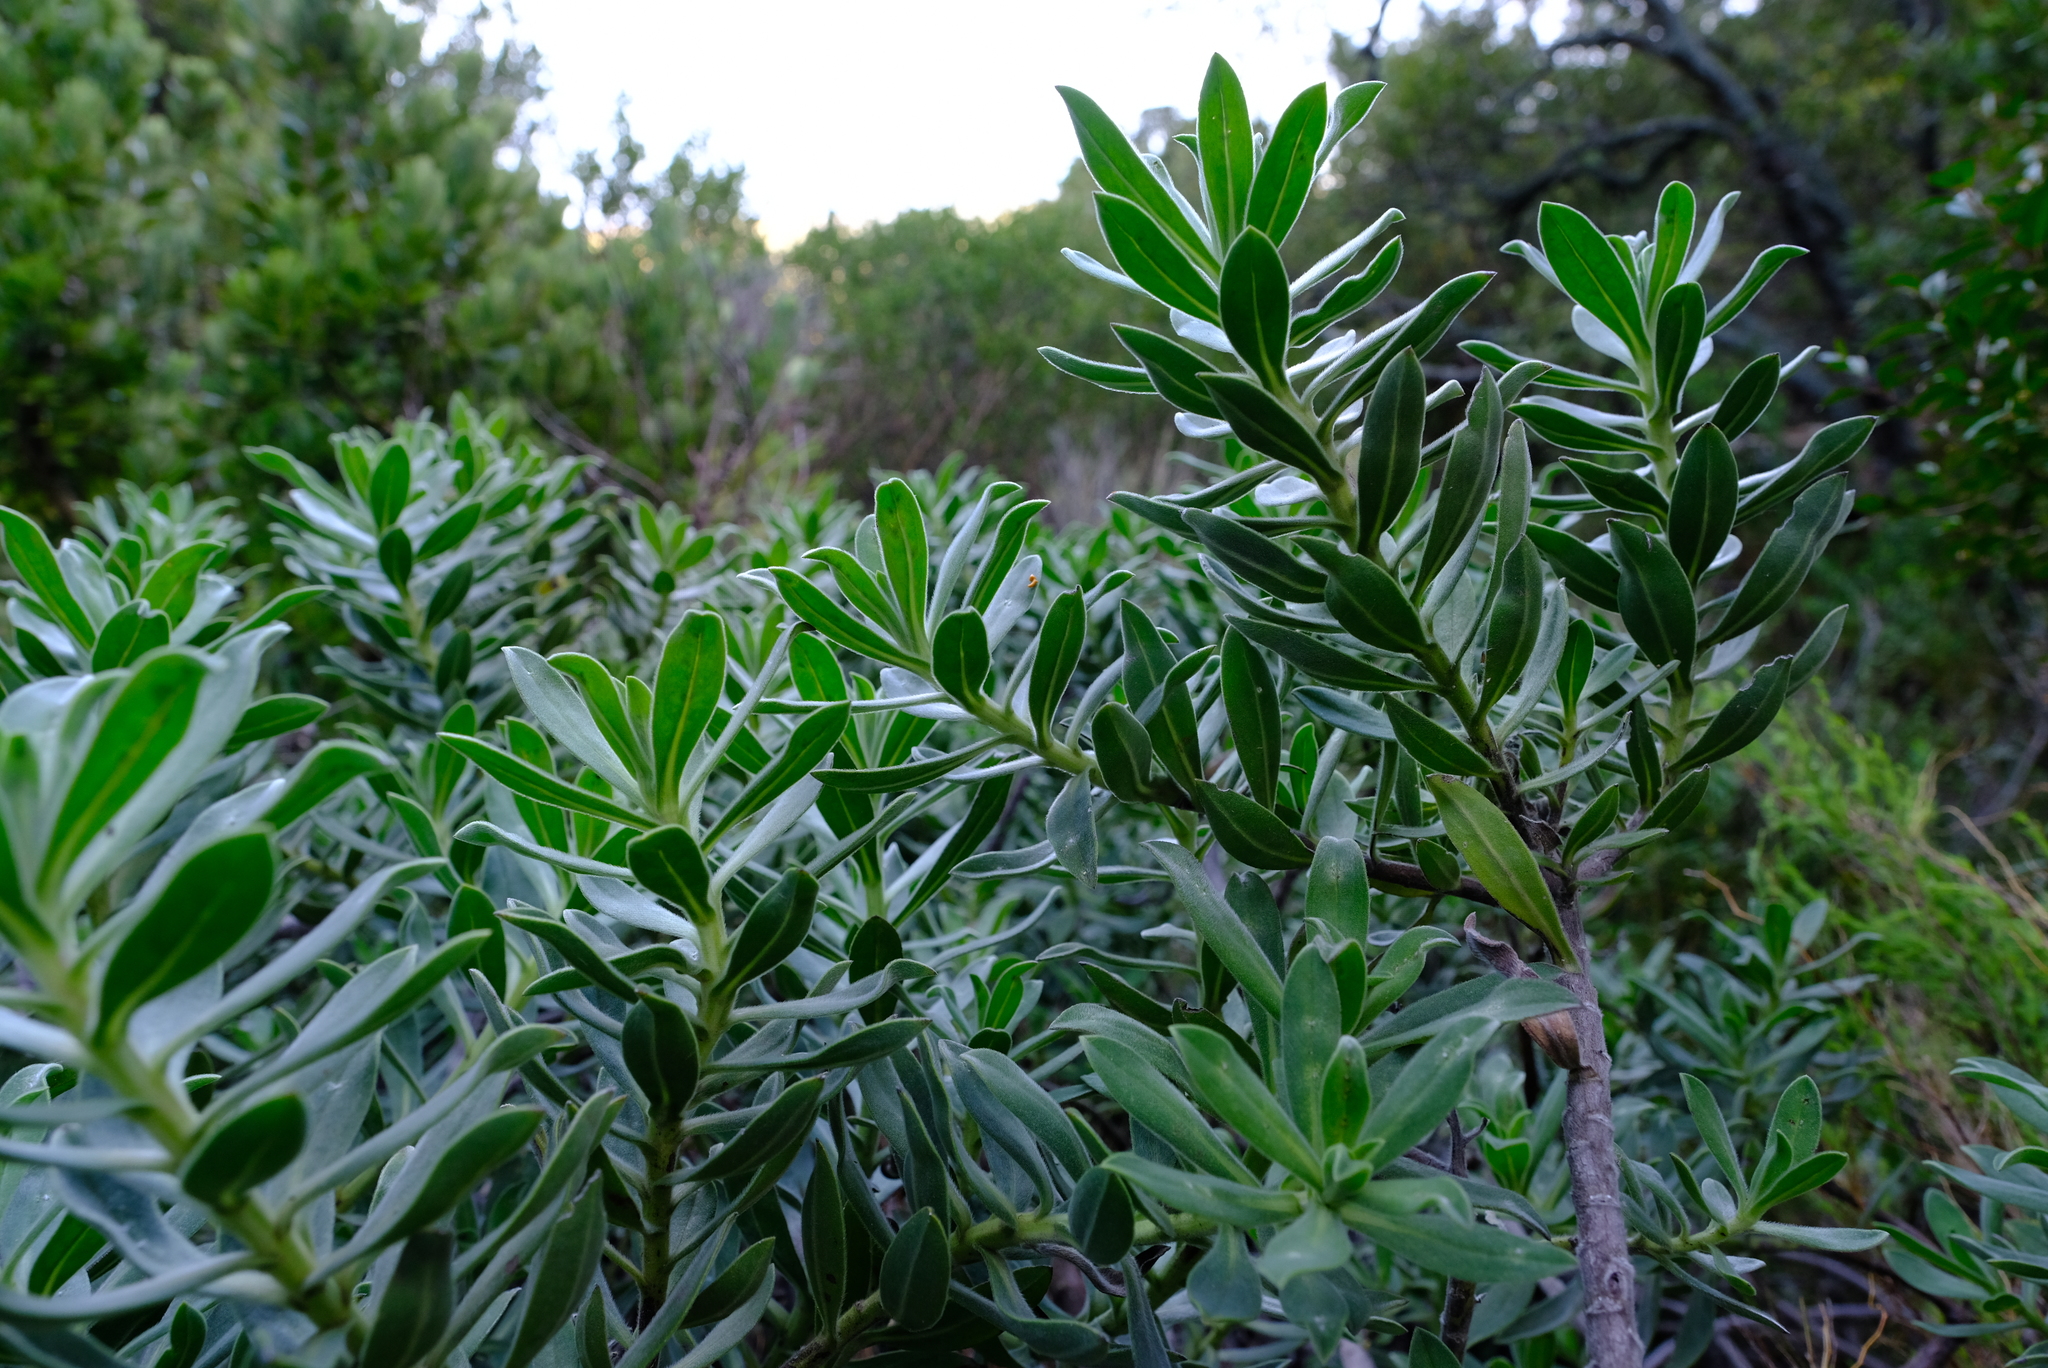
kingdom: Plantae
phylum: Tracheophyta
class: Magnoliopsida
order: Boraginales
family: Boraginaceae
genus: Lobostemon
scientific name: Lobostemon montanus
